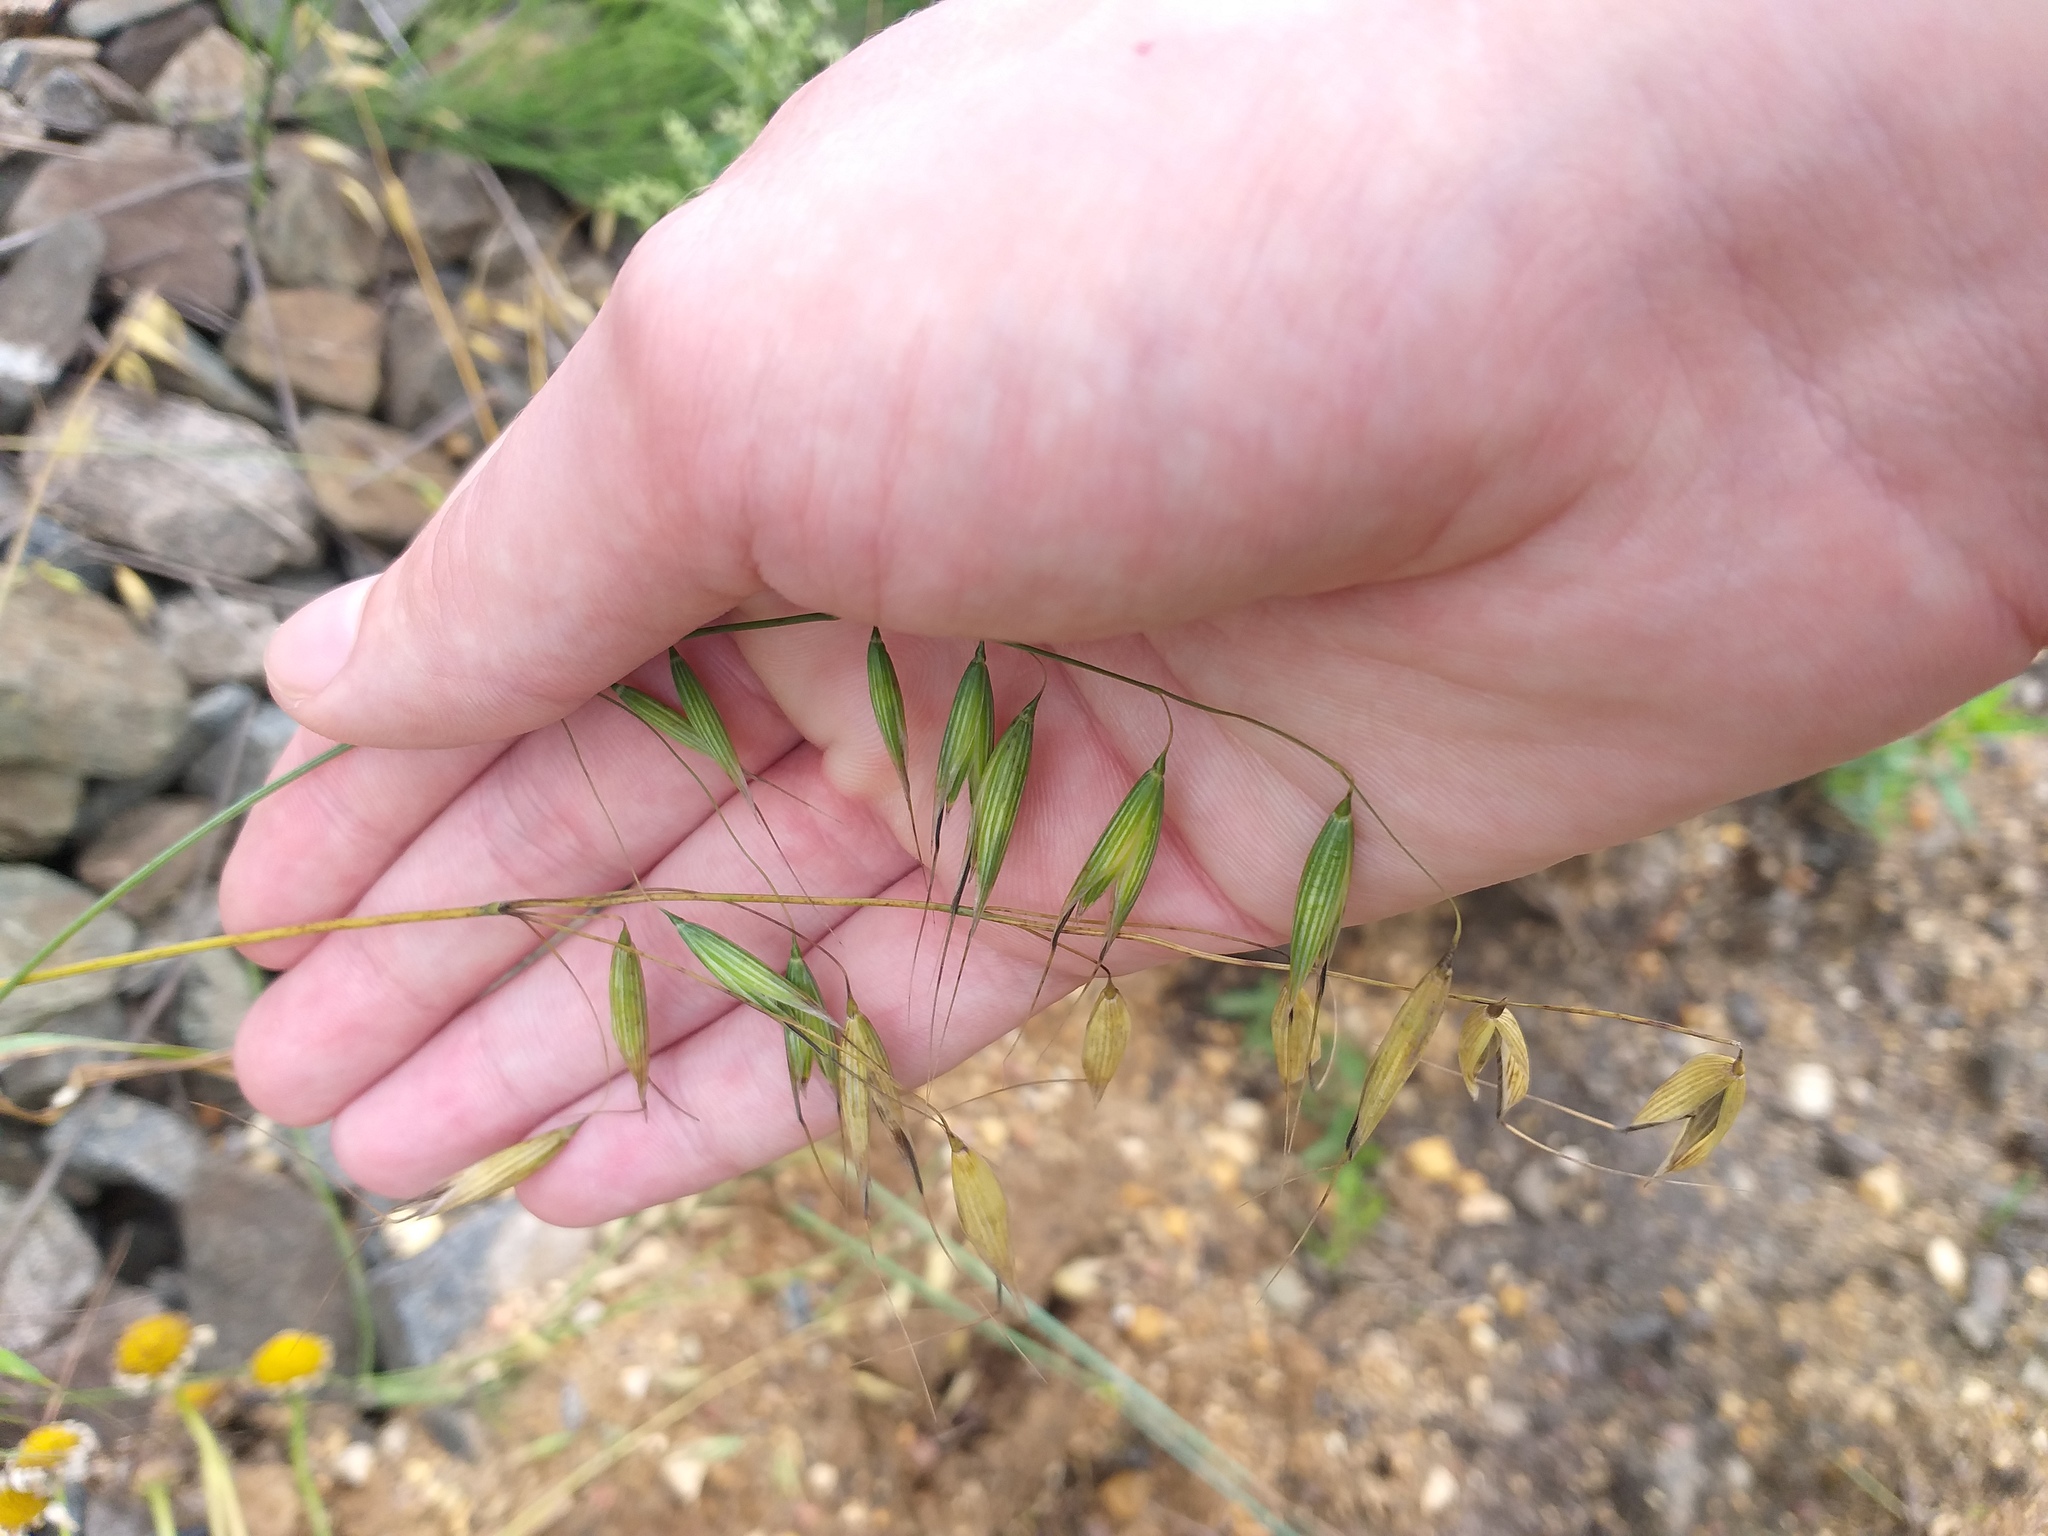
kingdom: Plantae
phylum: Tracheophyta
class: Liliopsida
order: Poales
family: Poaceae
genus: Avena
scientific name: Avena fatua
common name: Wild oat
